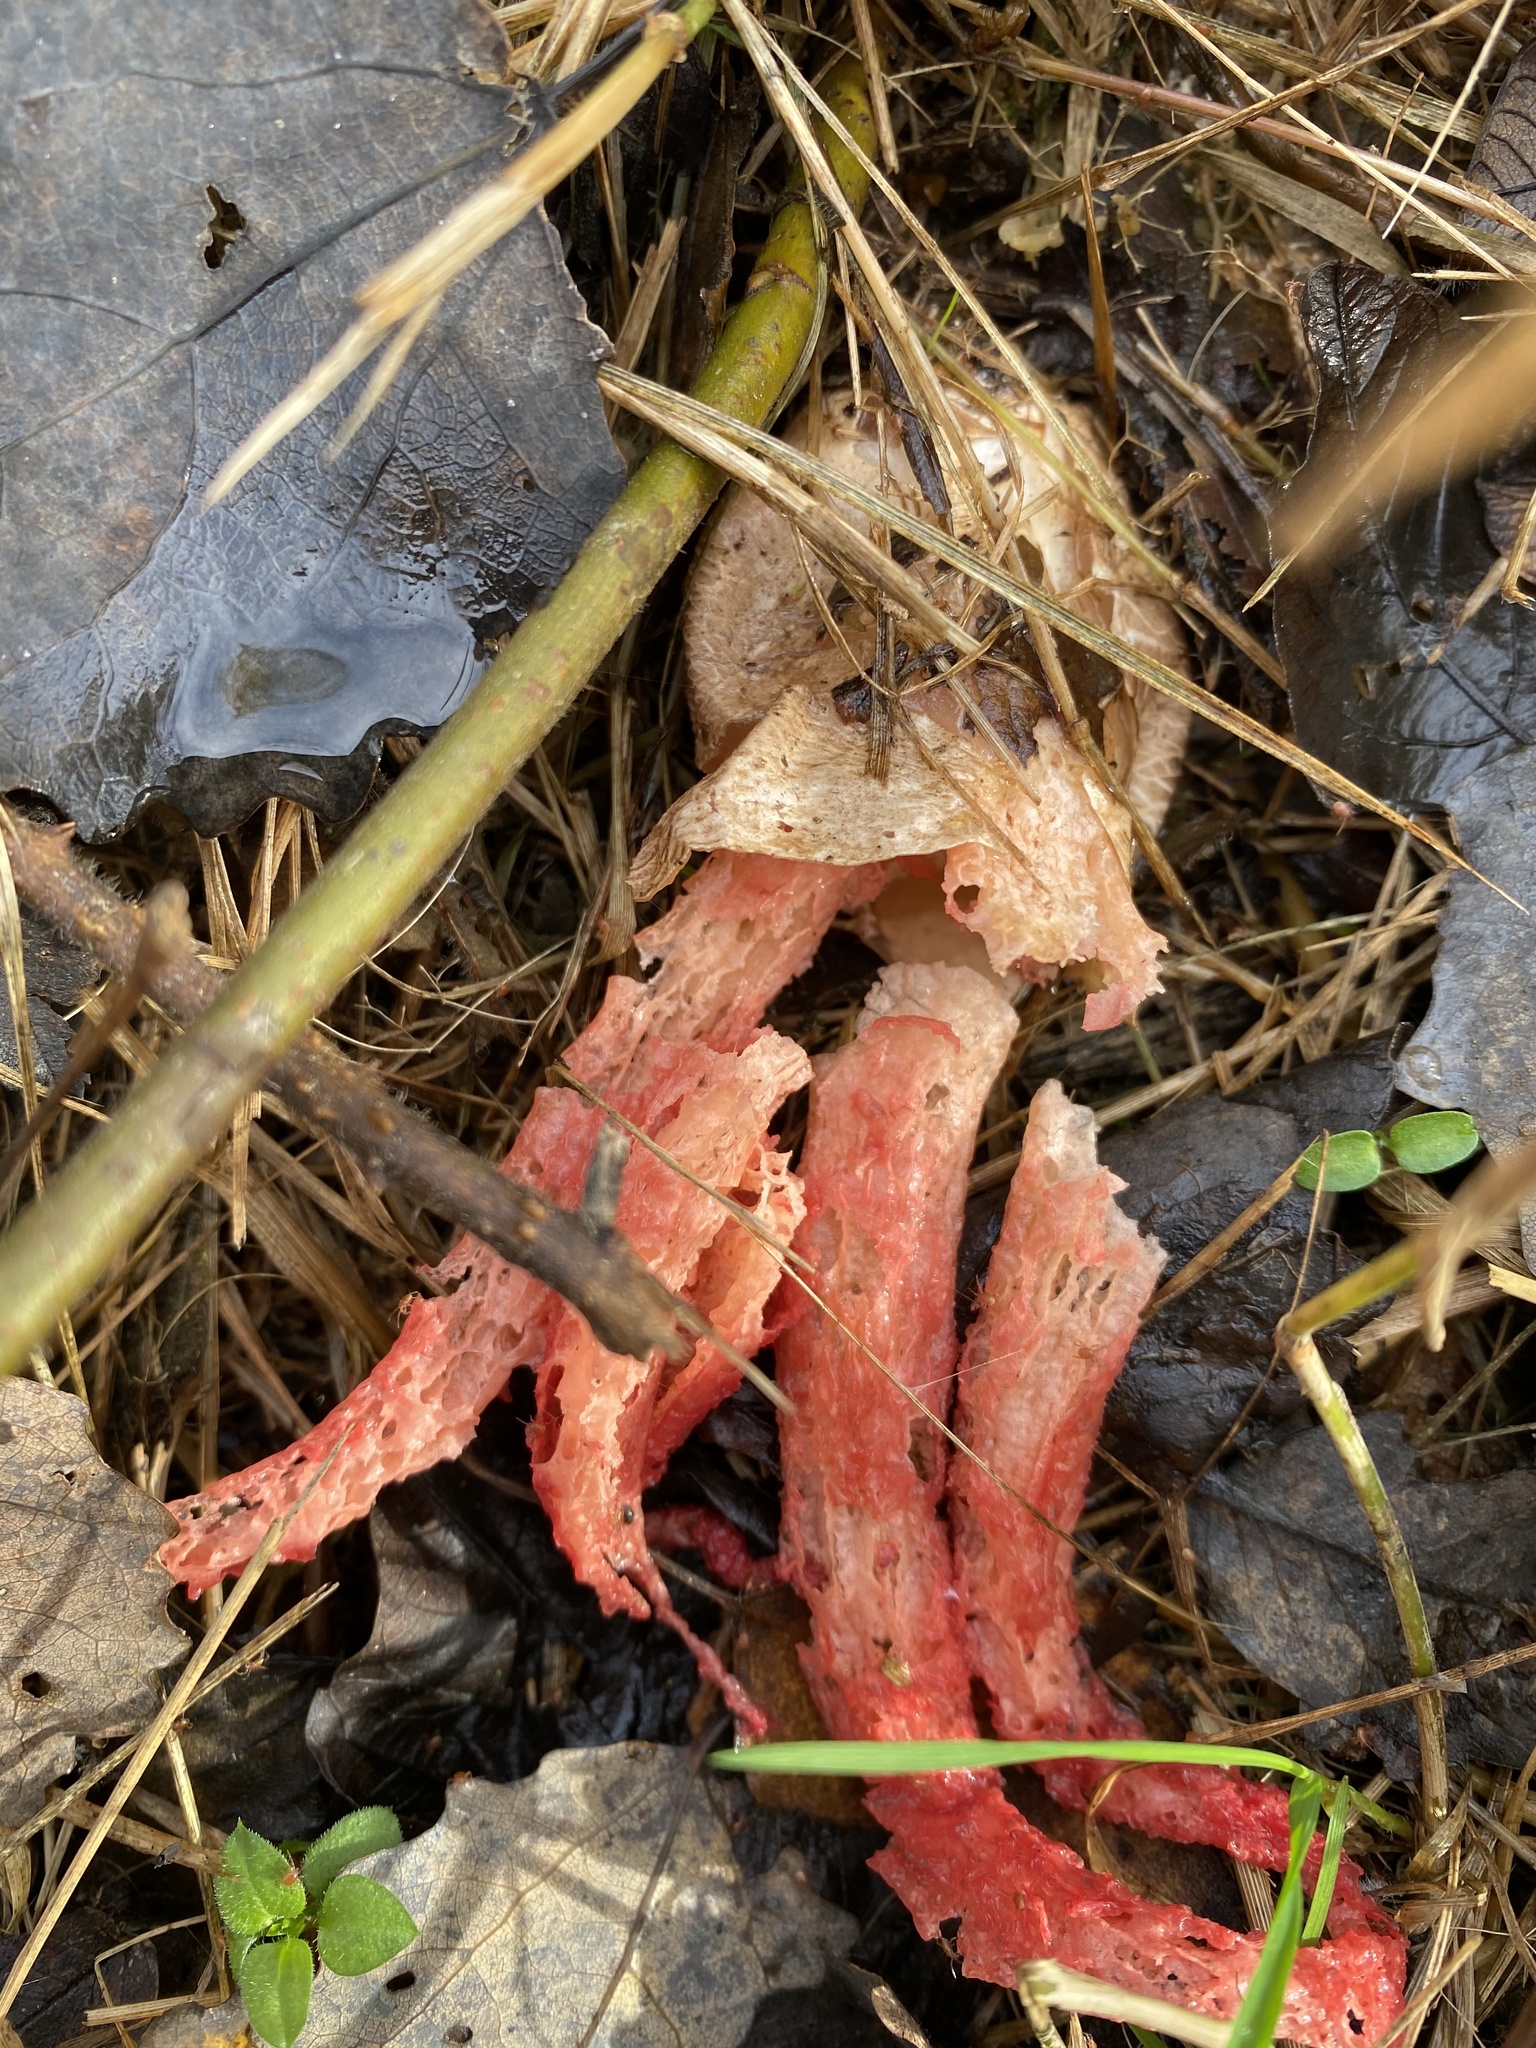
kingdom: Fungi
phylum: Basidiomycota
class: Agaricomycetes
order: Phallales
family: Phallaceae
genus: Clathrus
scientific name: Clathrus archeri
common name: Devil's fingers
